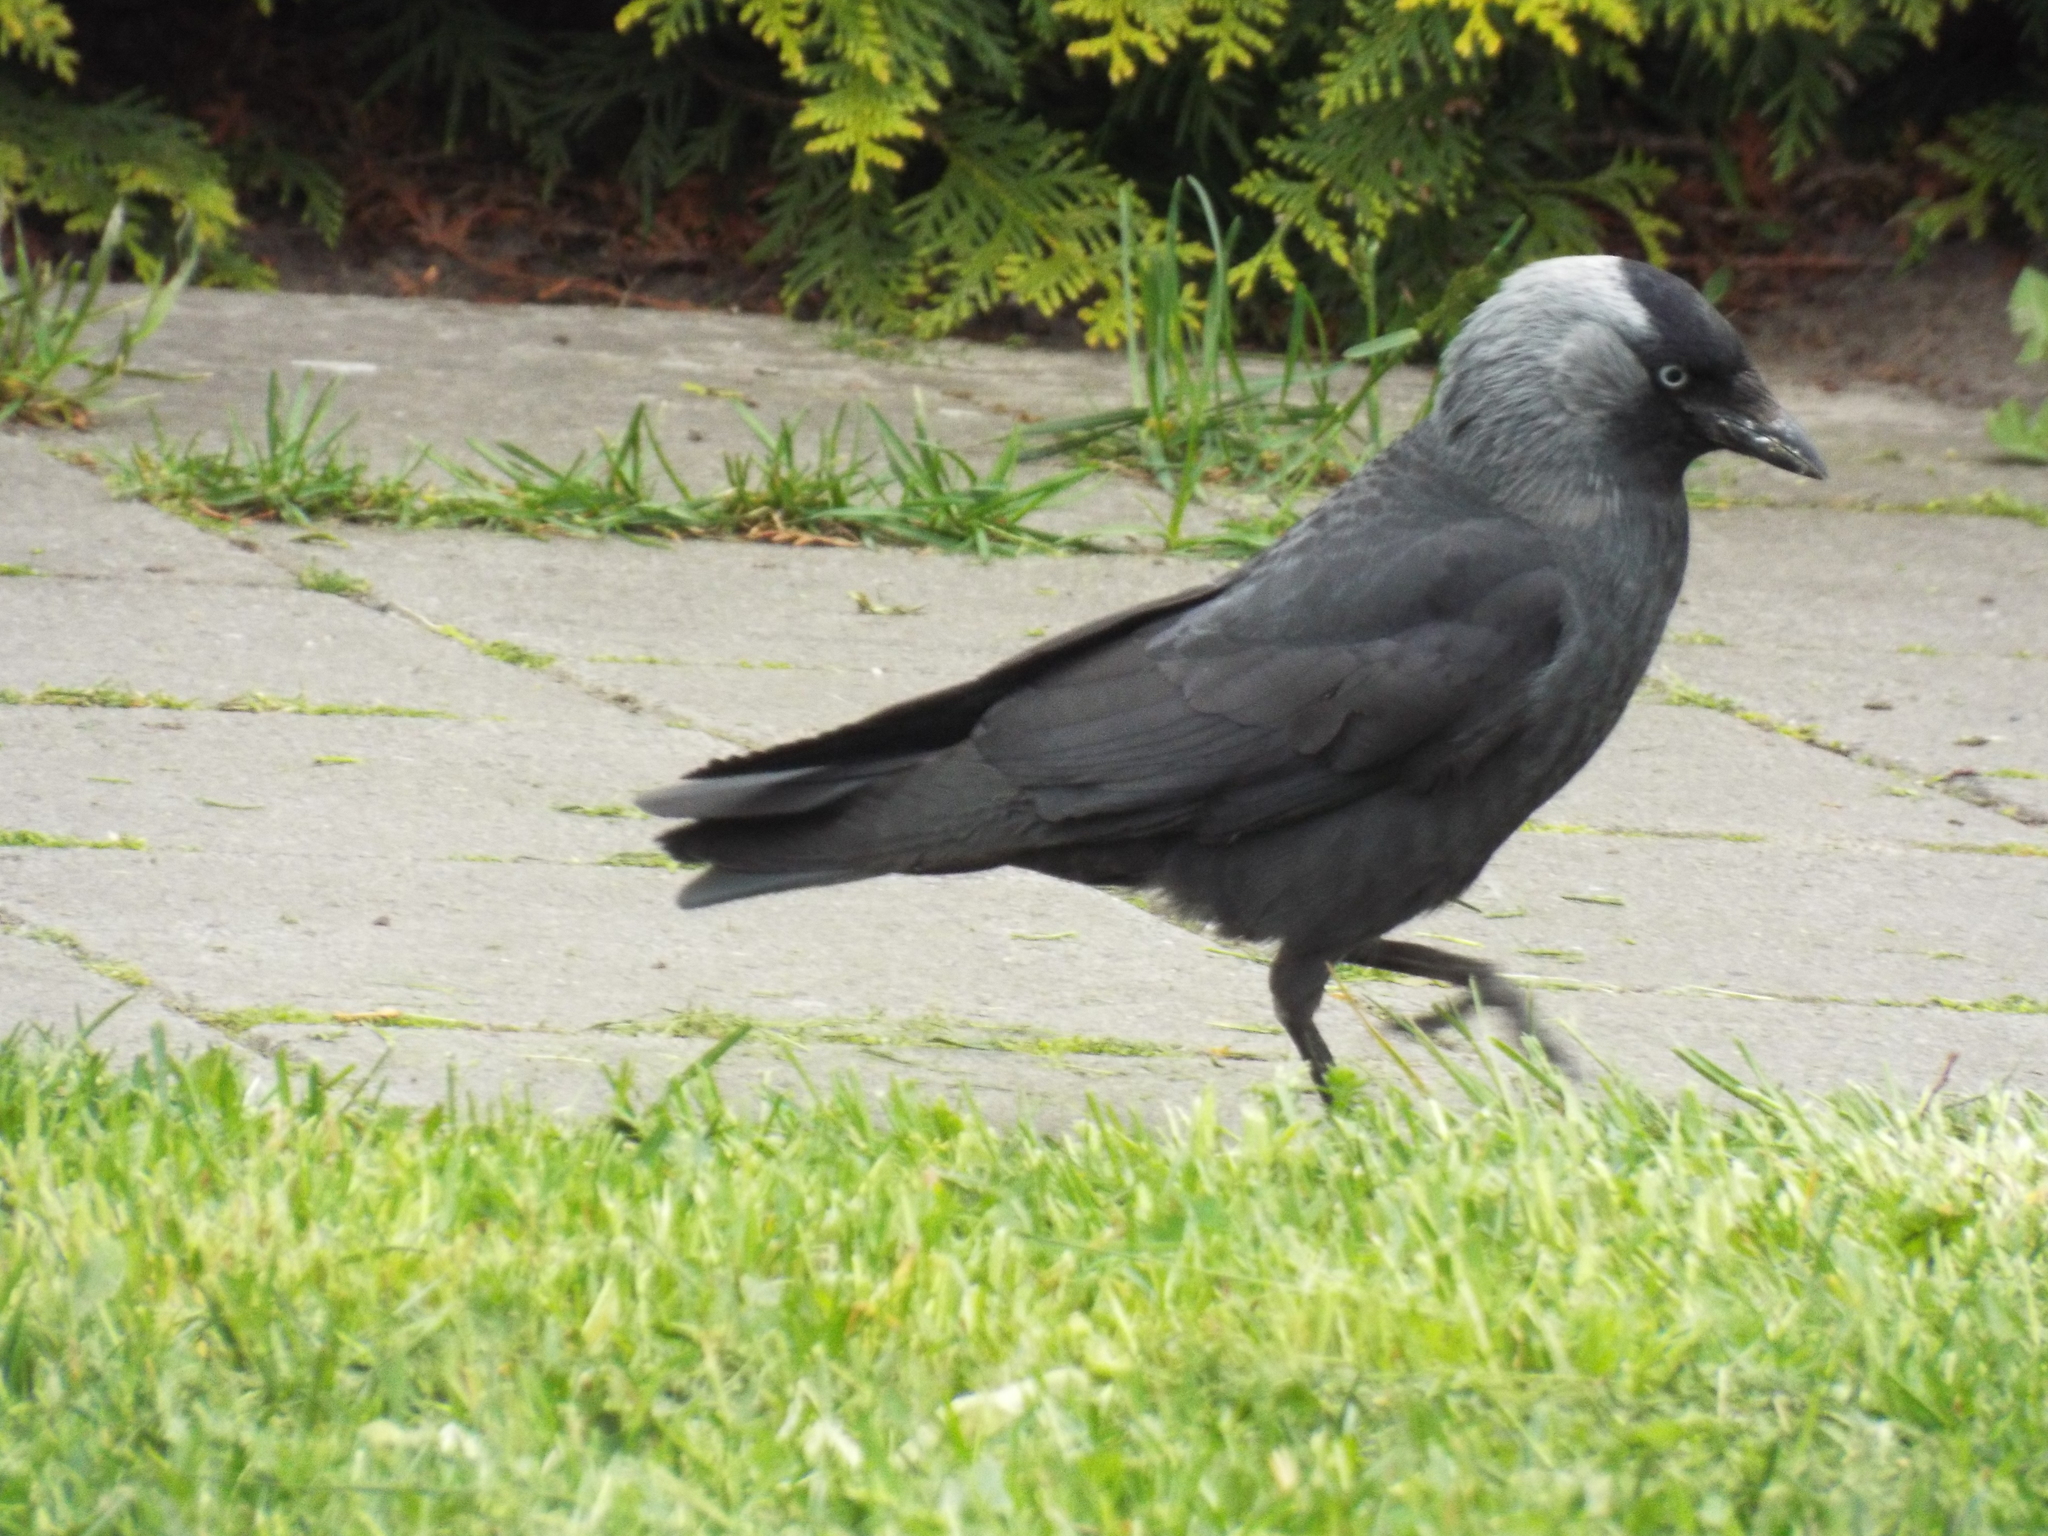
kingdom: Animalia
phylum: Chordata
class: Aves
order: Passeriformes
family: Corvidae
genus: Coloeus
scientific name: Coloeus monedula
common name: Western jackdaw
